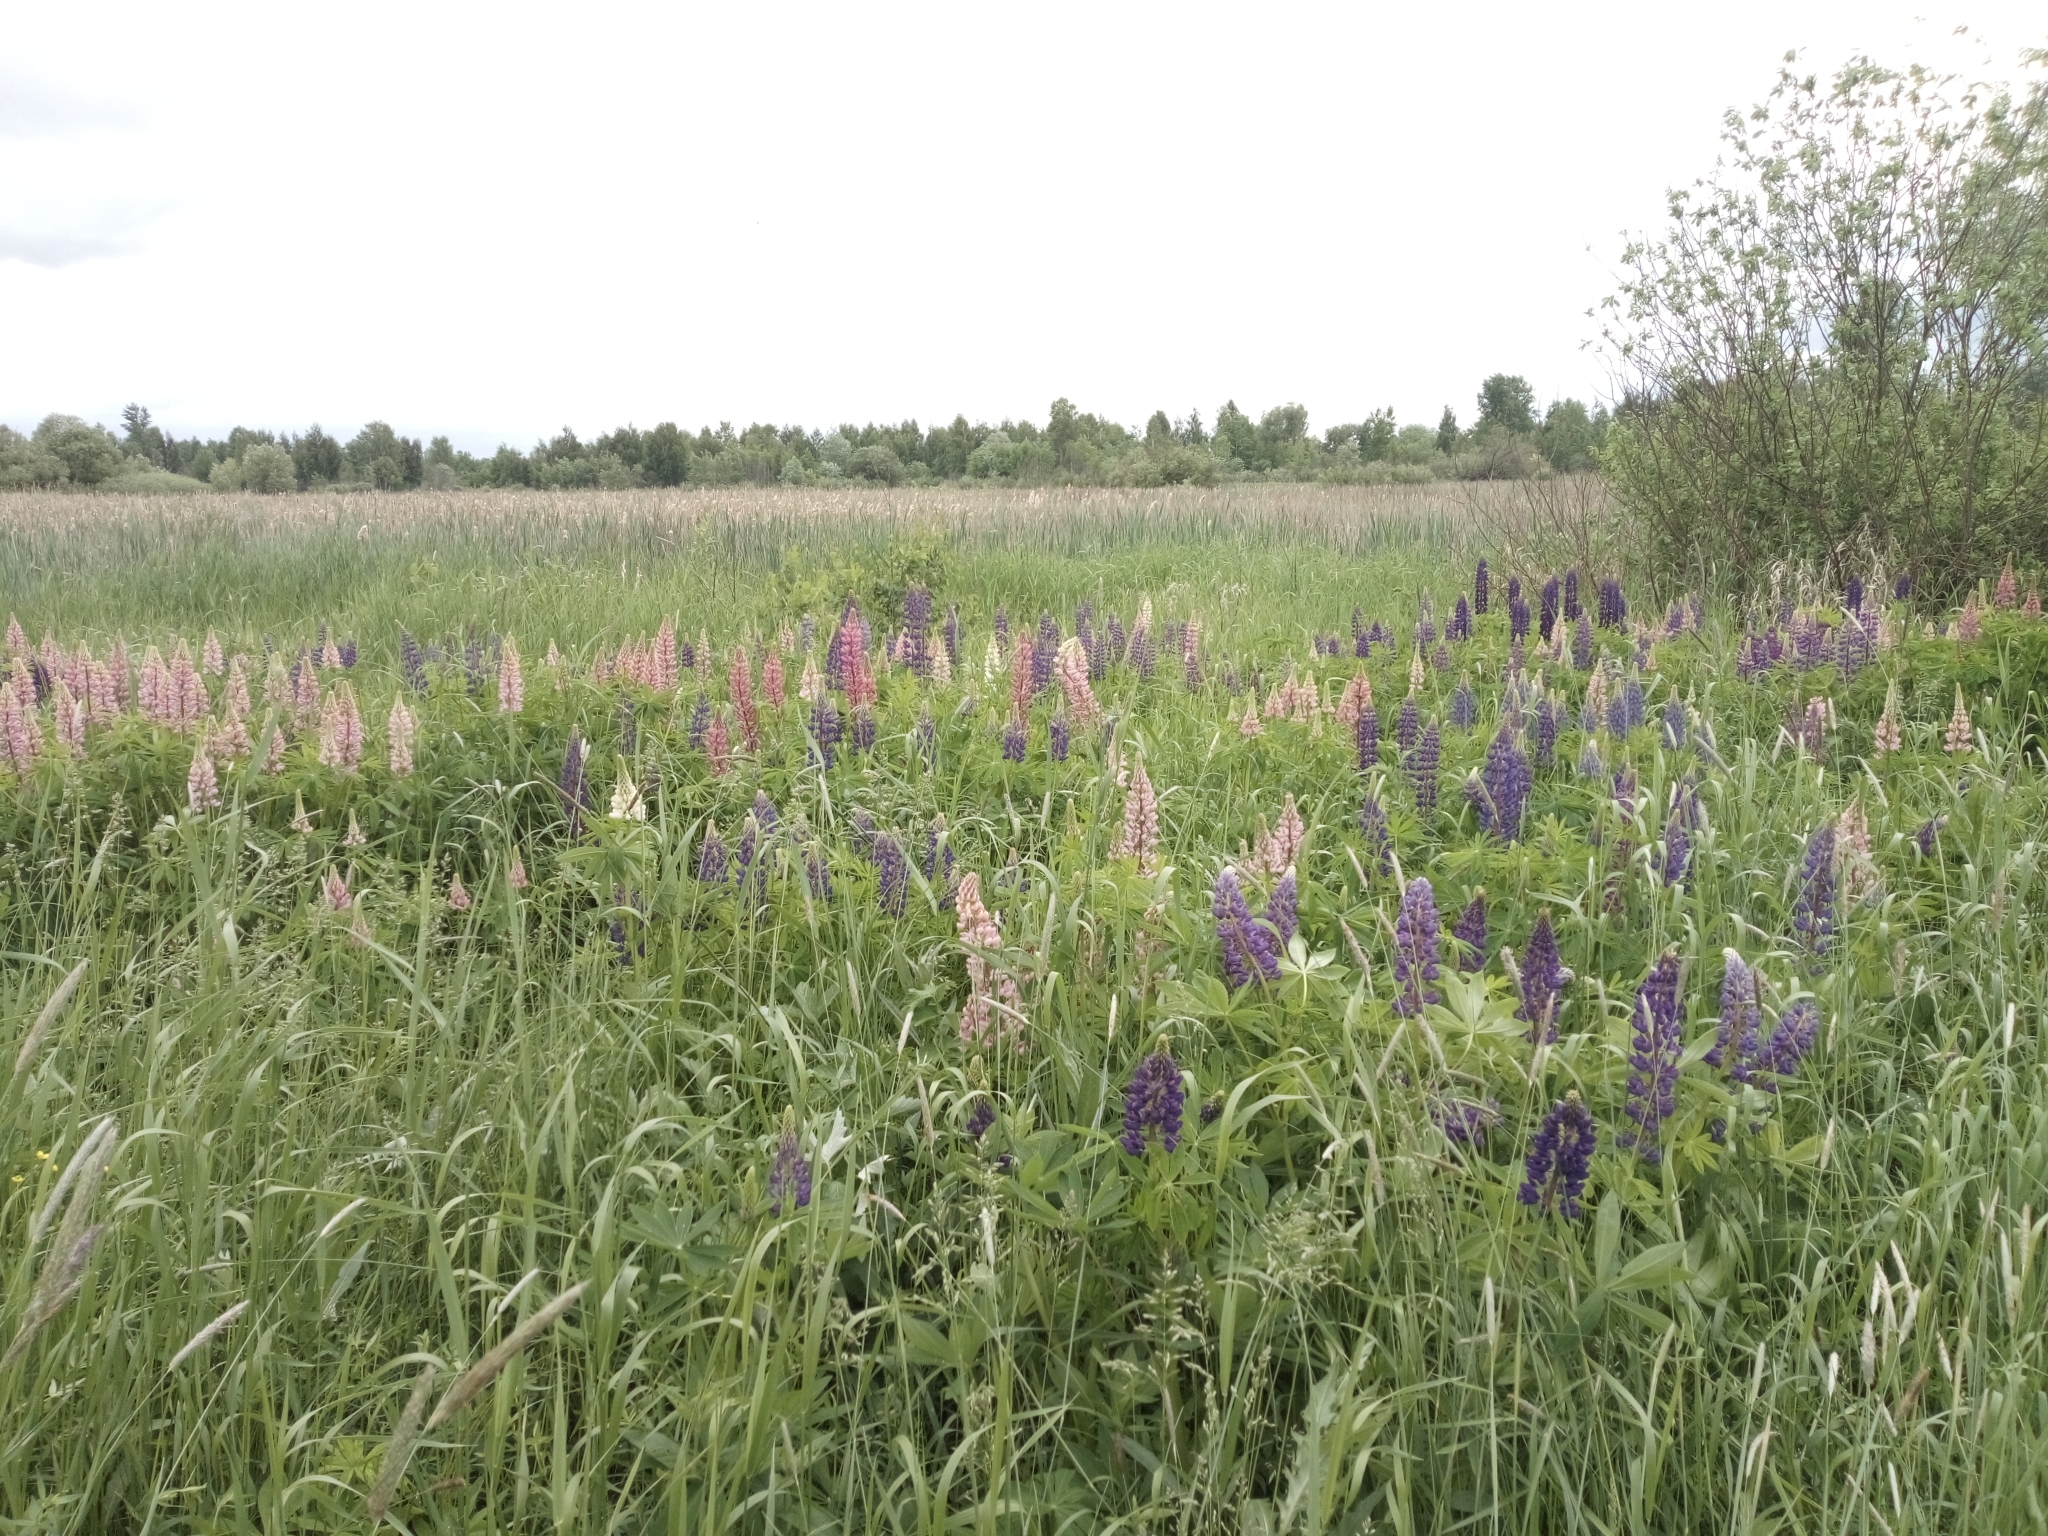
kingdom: Plantae
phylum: Tracheophyta
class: Magnoliopsida
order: Fabales
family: Fabaceae
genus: Lupinus
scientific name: Lupinus polyphyllus
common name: Garden lupin
